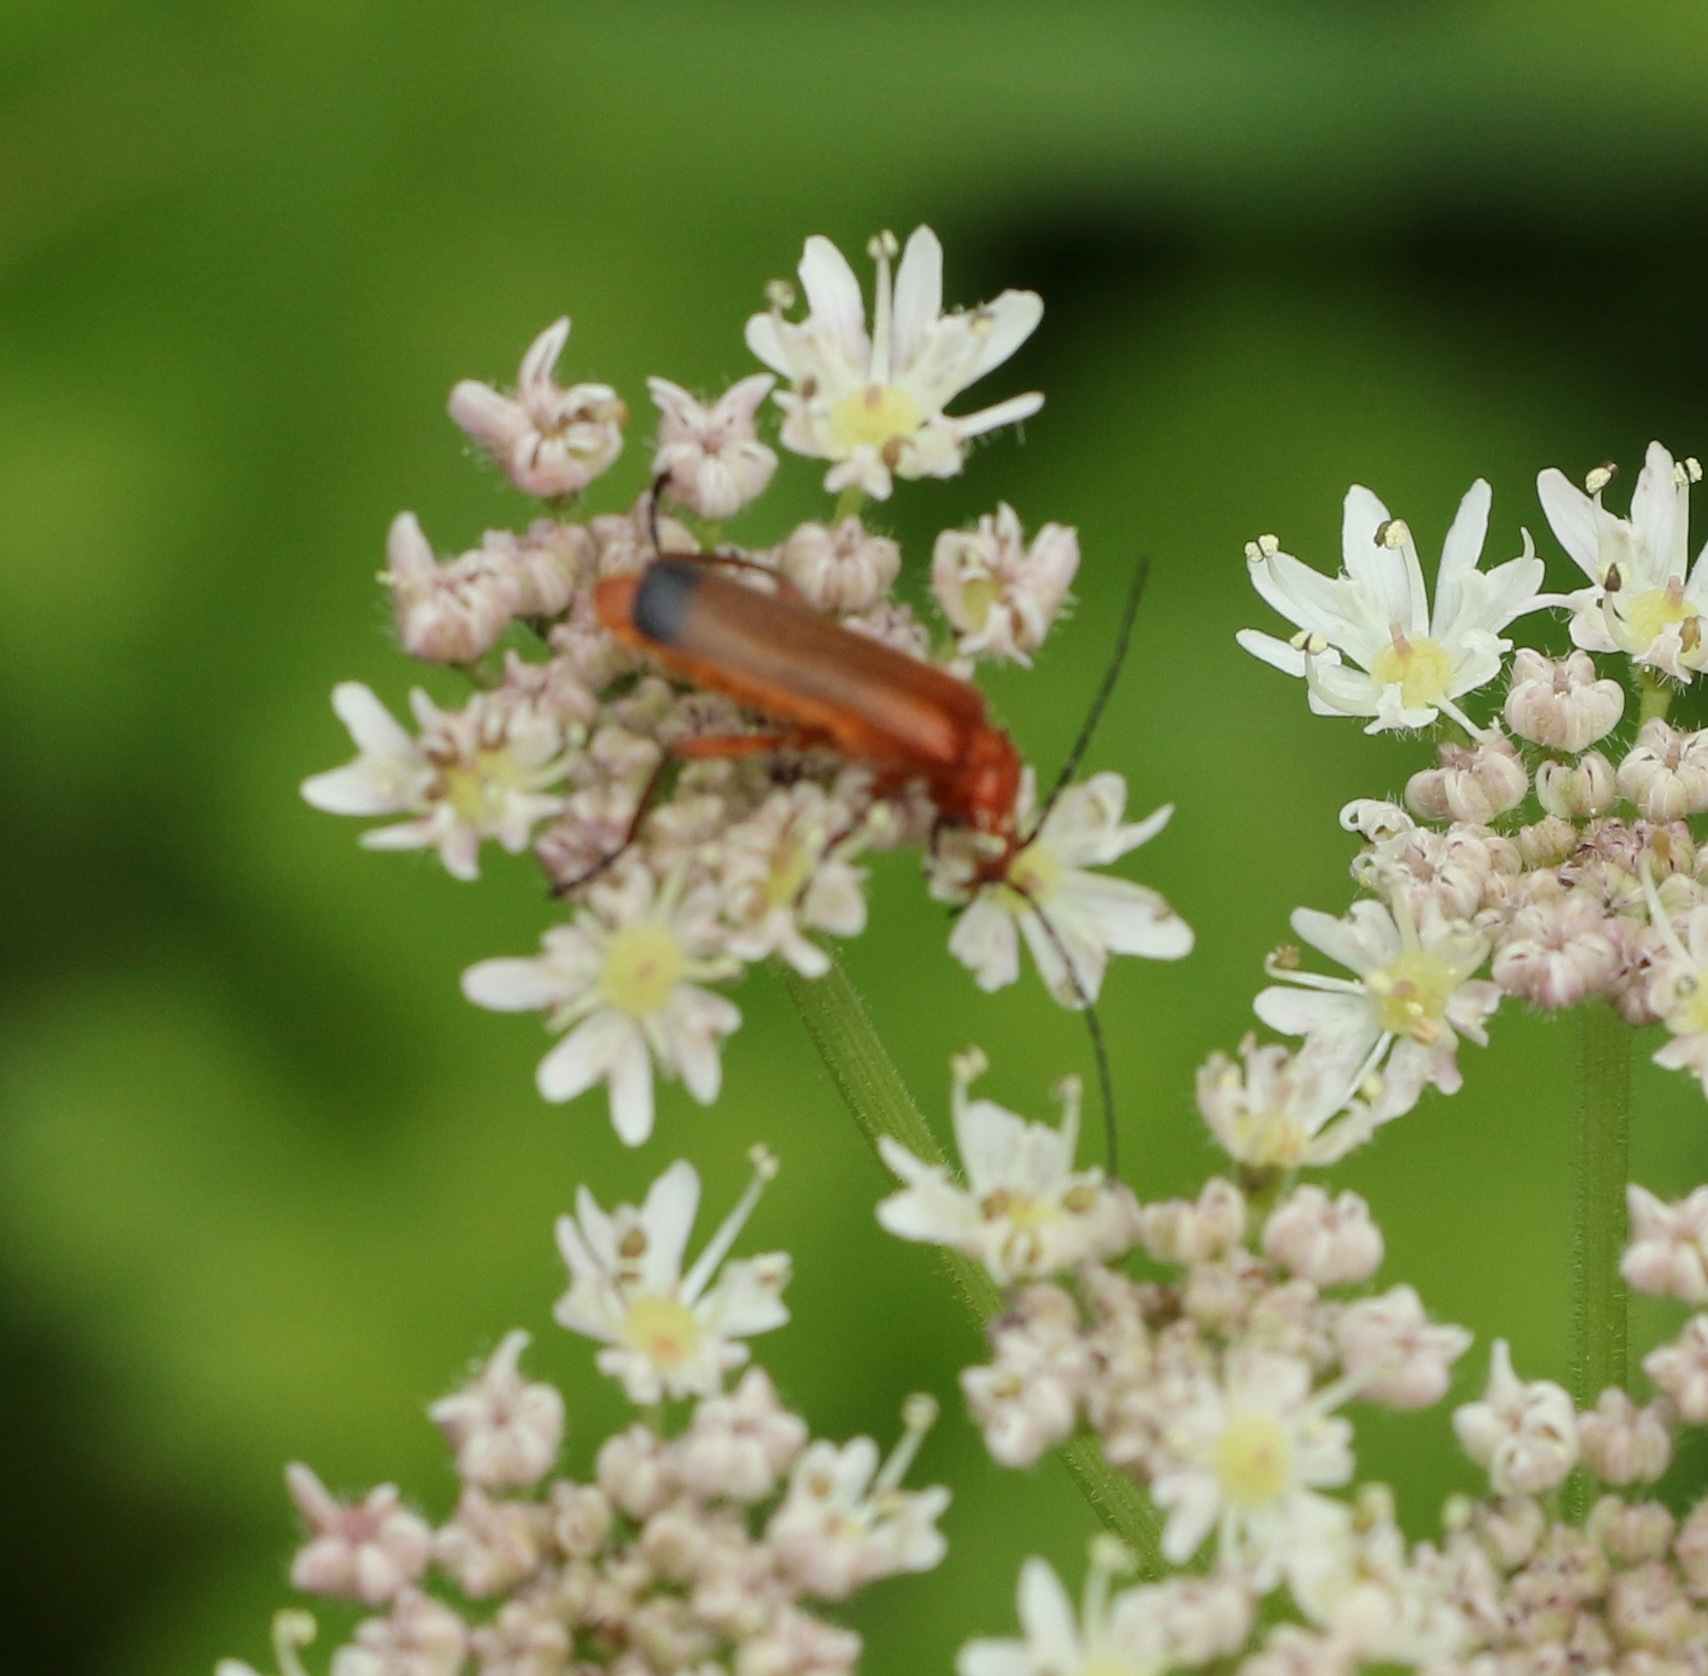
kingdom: Animalia
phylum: Arthropoda
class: Insecta
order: Coleoptera
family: Cantharidae
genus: Rhagonycha
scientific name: Rhagonycha fulva
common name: Common red soldier beetle
